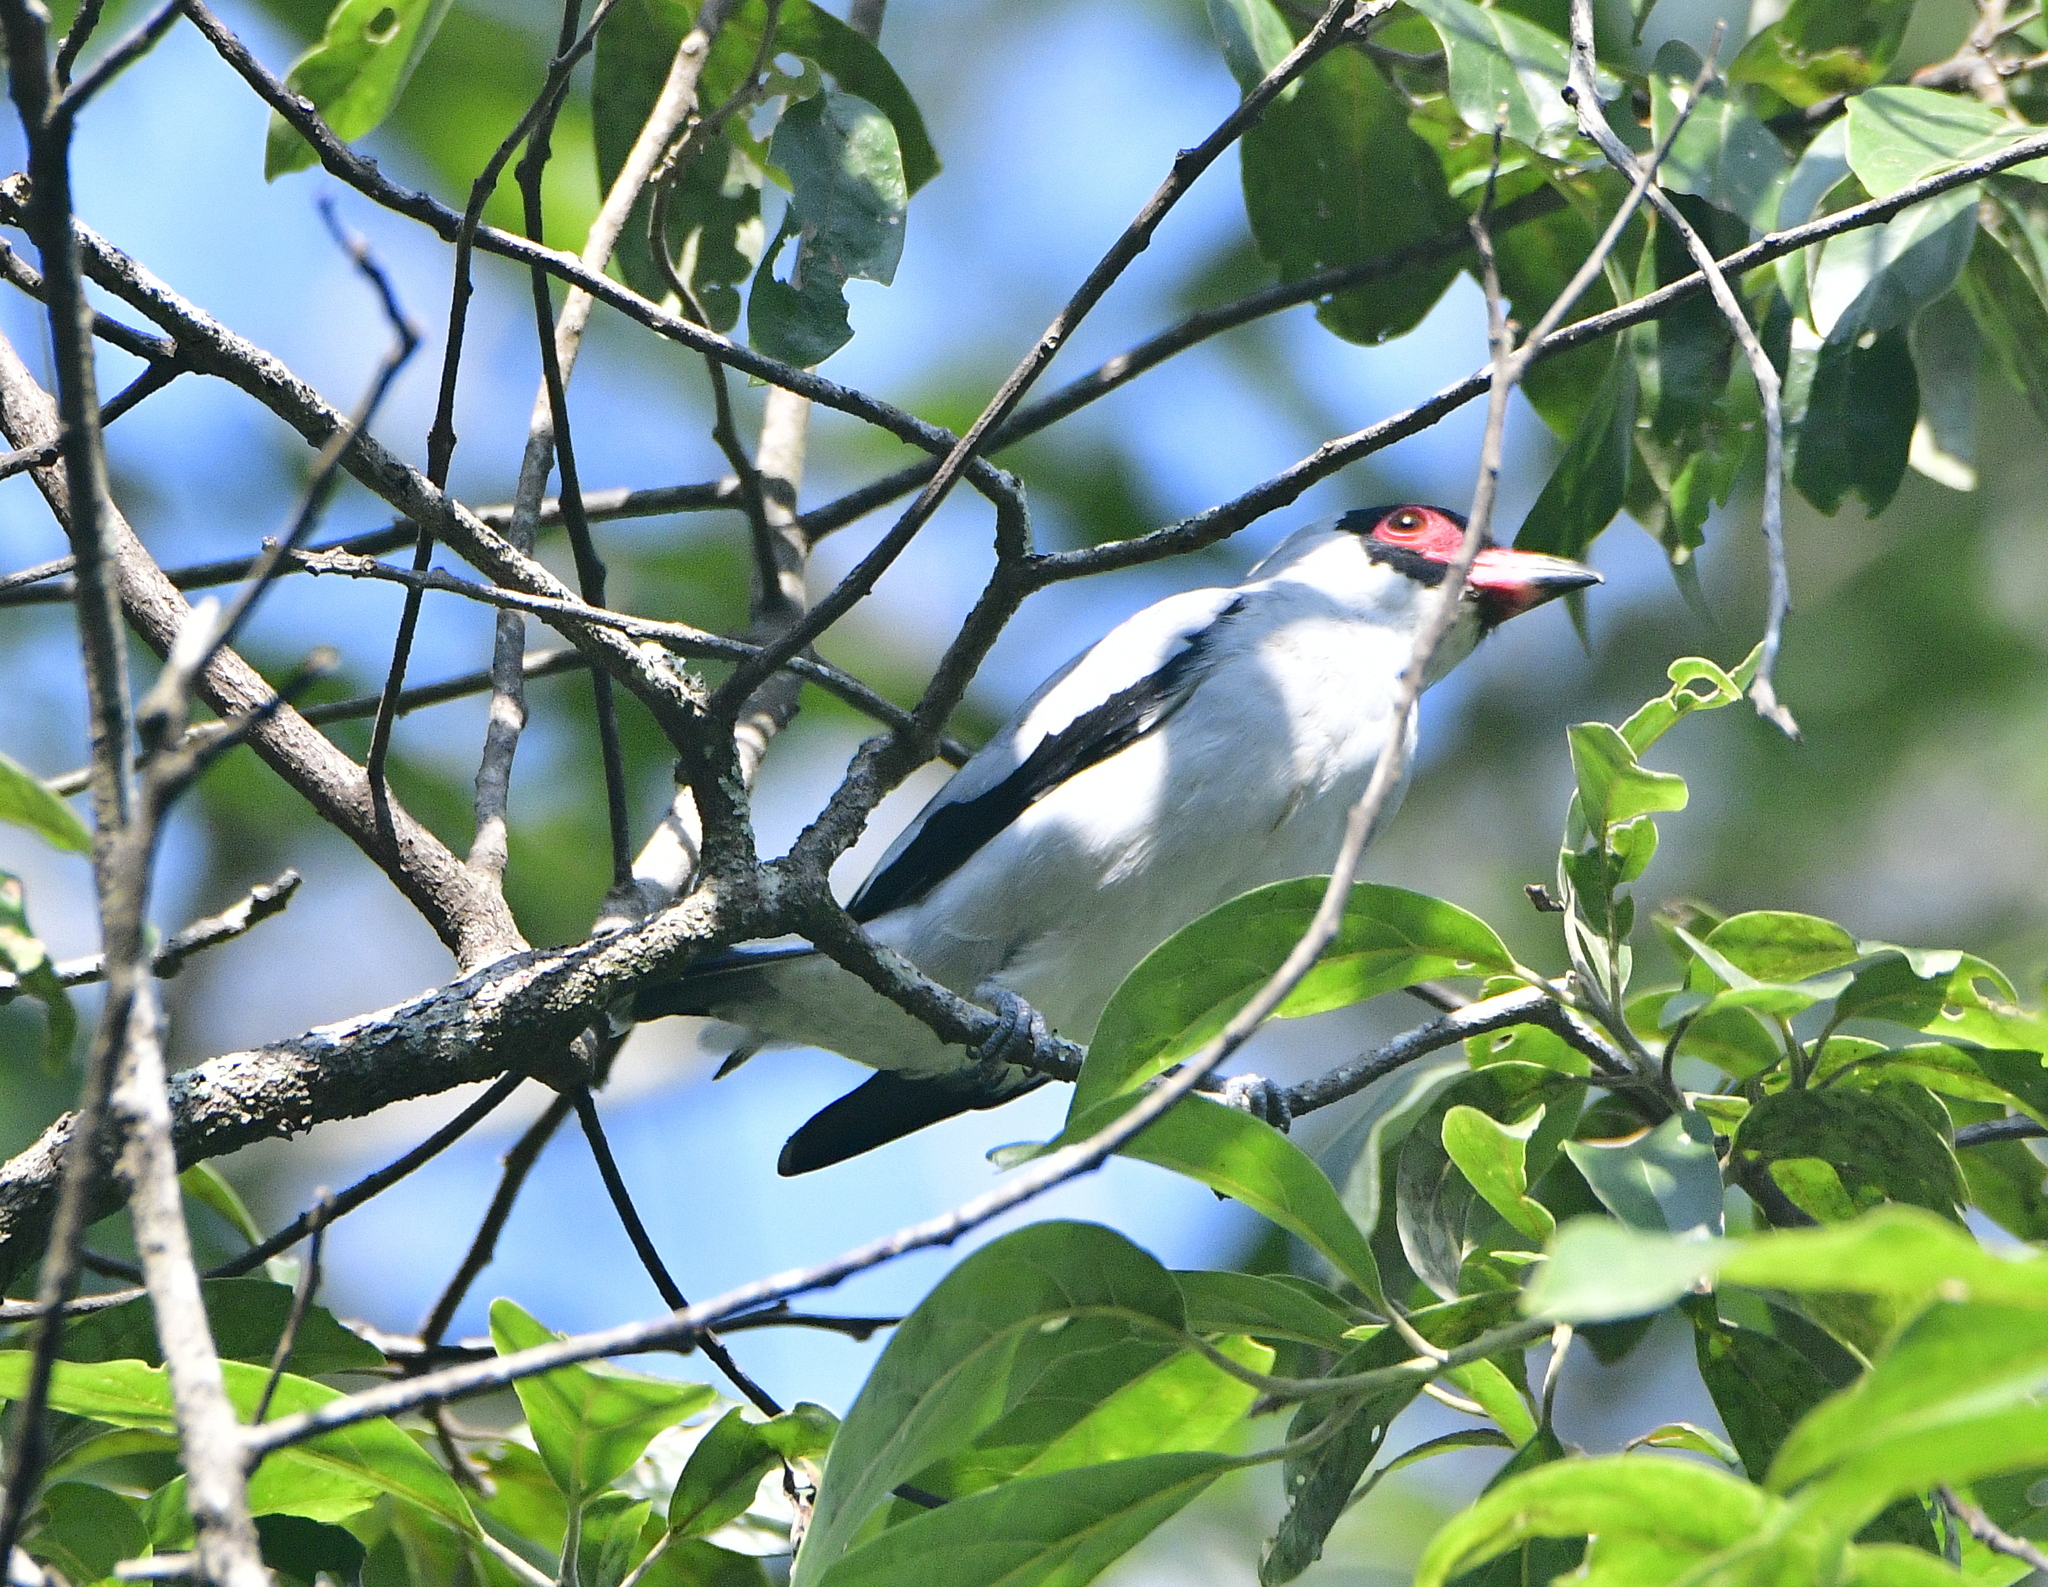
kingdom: Animalia
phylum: Chordata
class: Aves
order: Passeriformes
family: Cotingidae
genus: Tityra
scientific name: Tityra semifasciata
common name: Masked tityra
